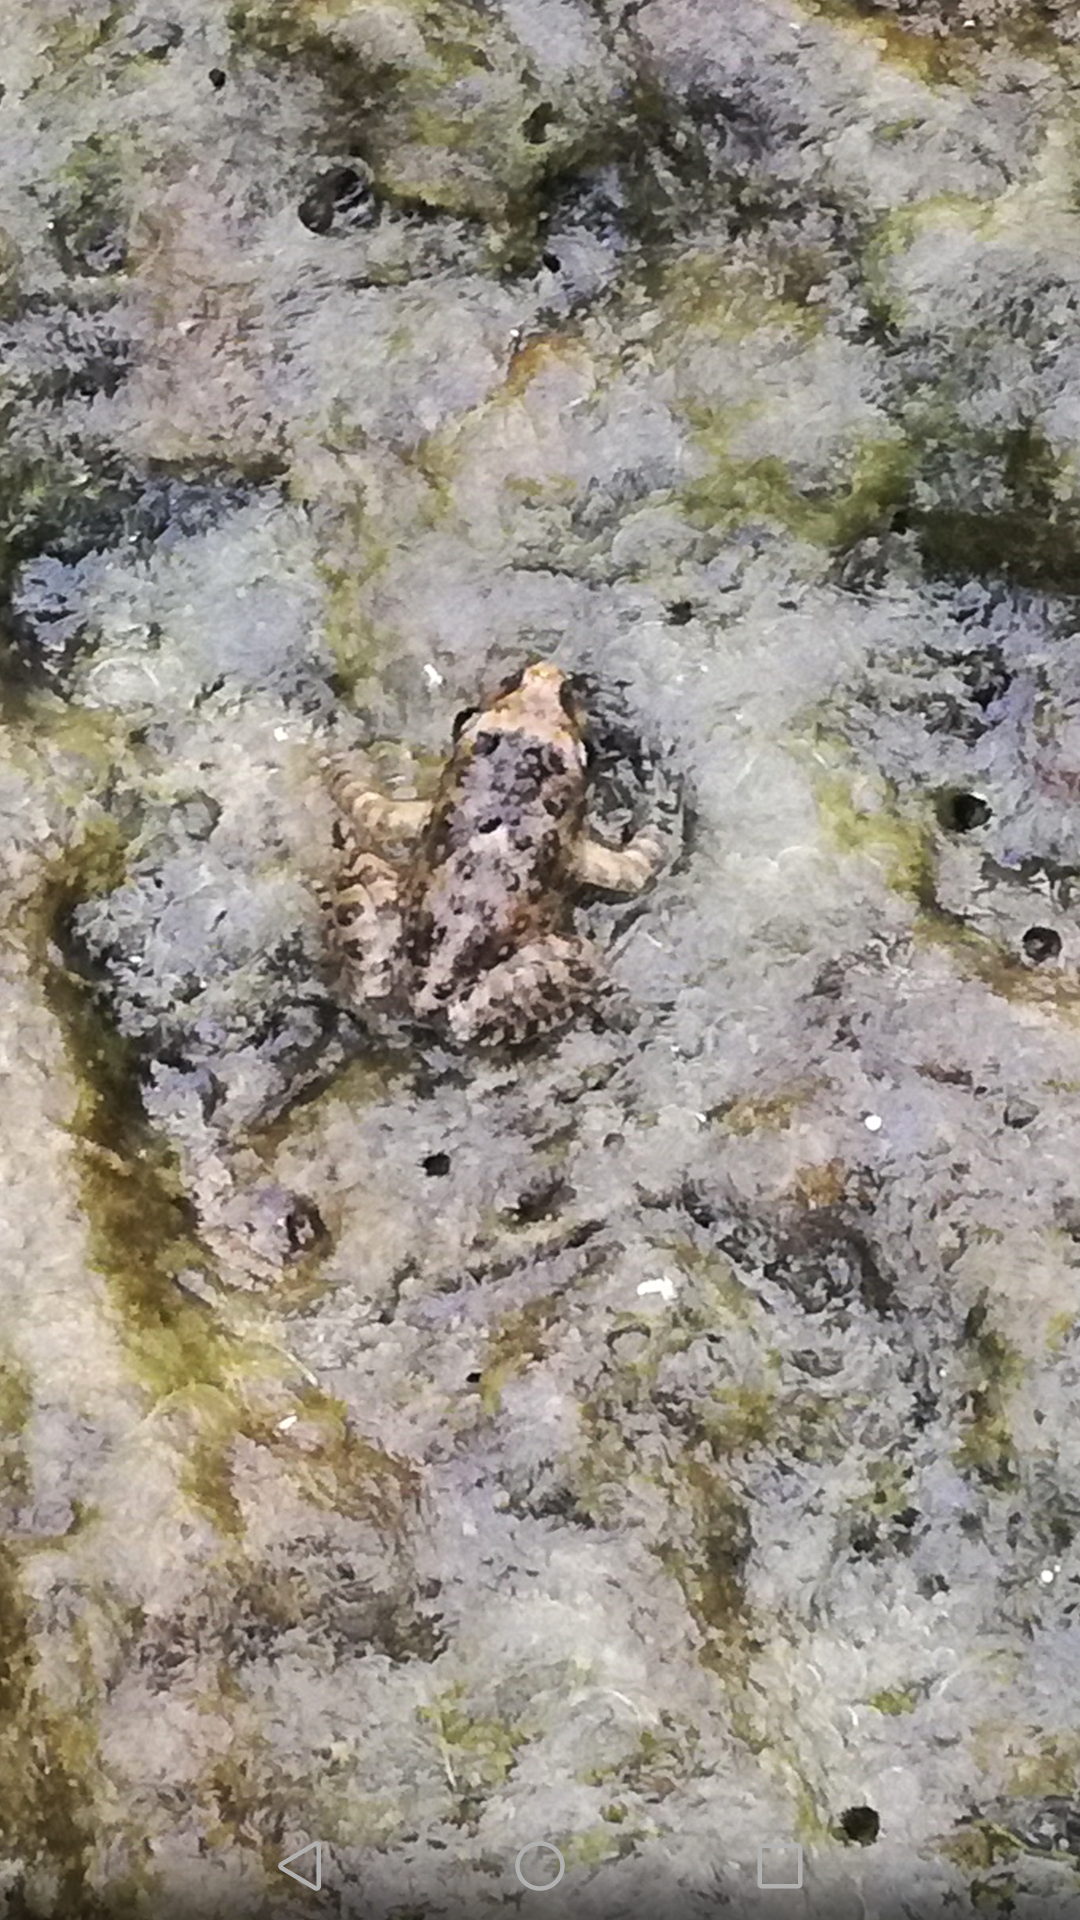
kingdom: Animalia
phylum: Chordata
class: Amphibia
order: Anura
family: Alytidae
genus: Discoglossus
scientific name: Discoglossus sardus
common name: Sardinia painted frog
